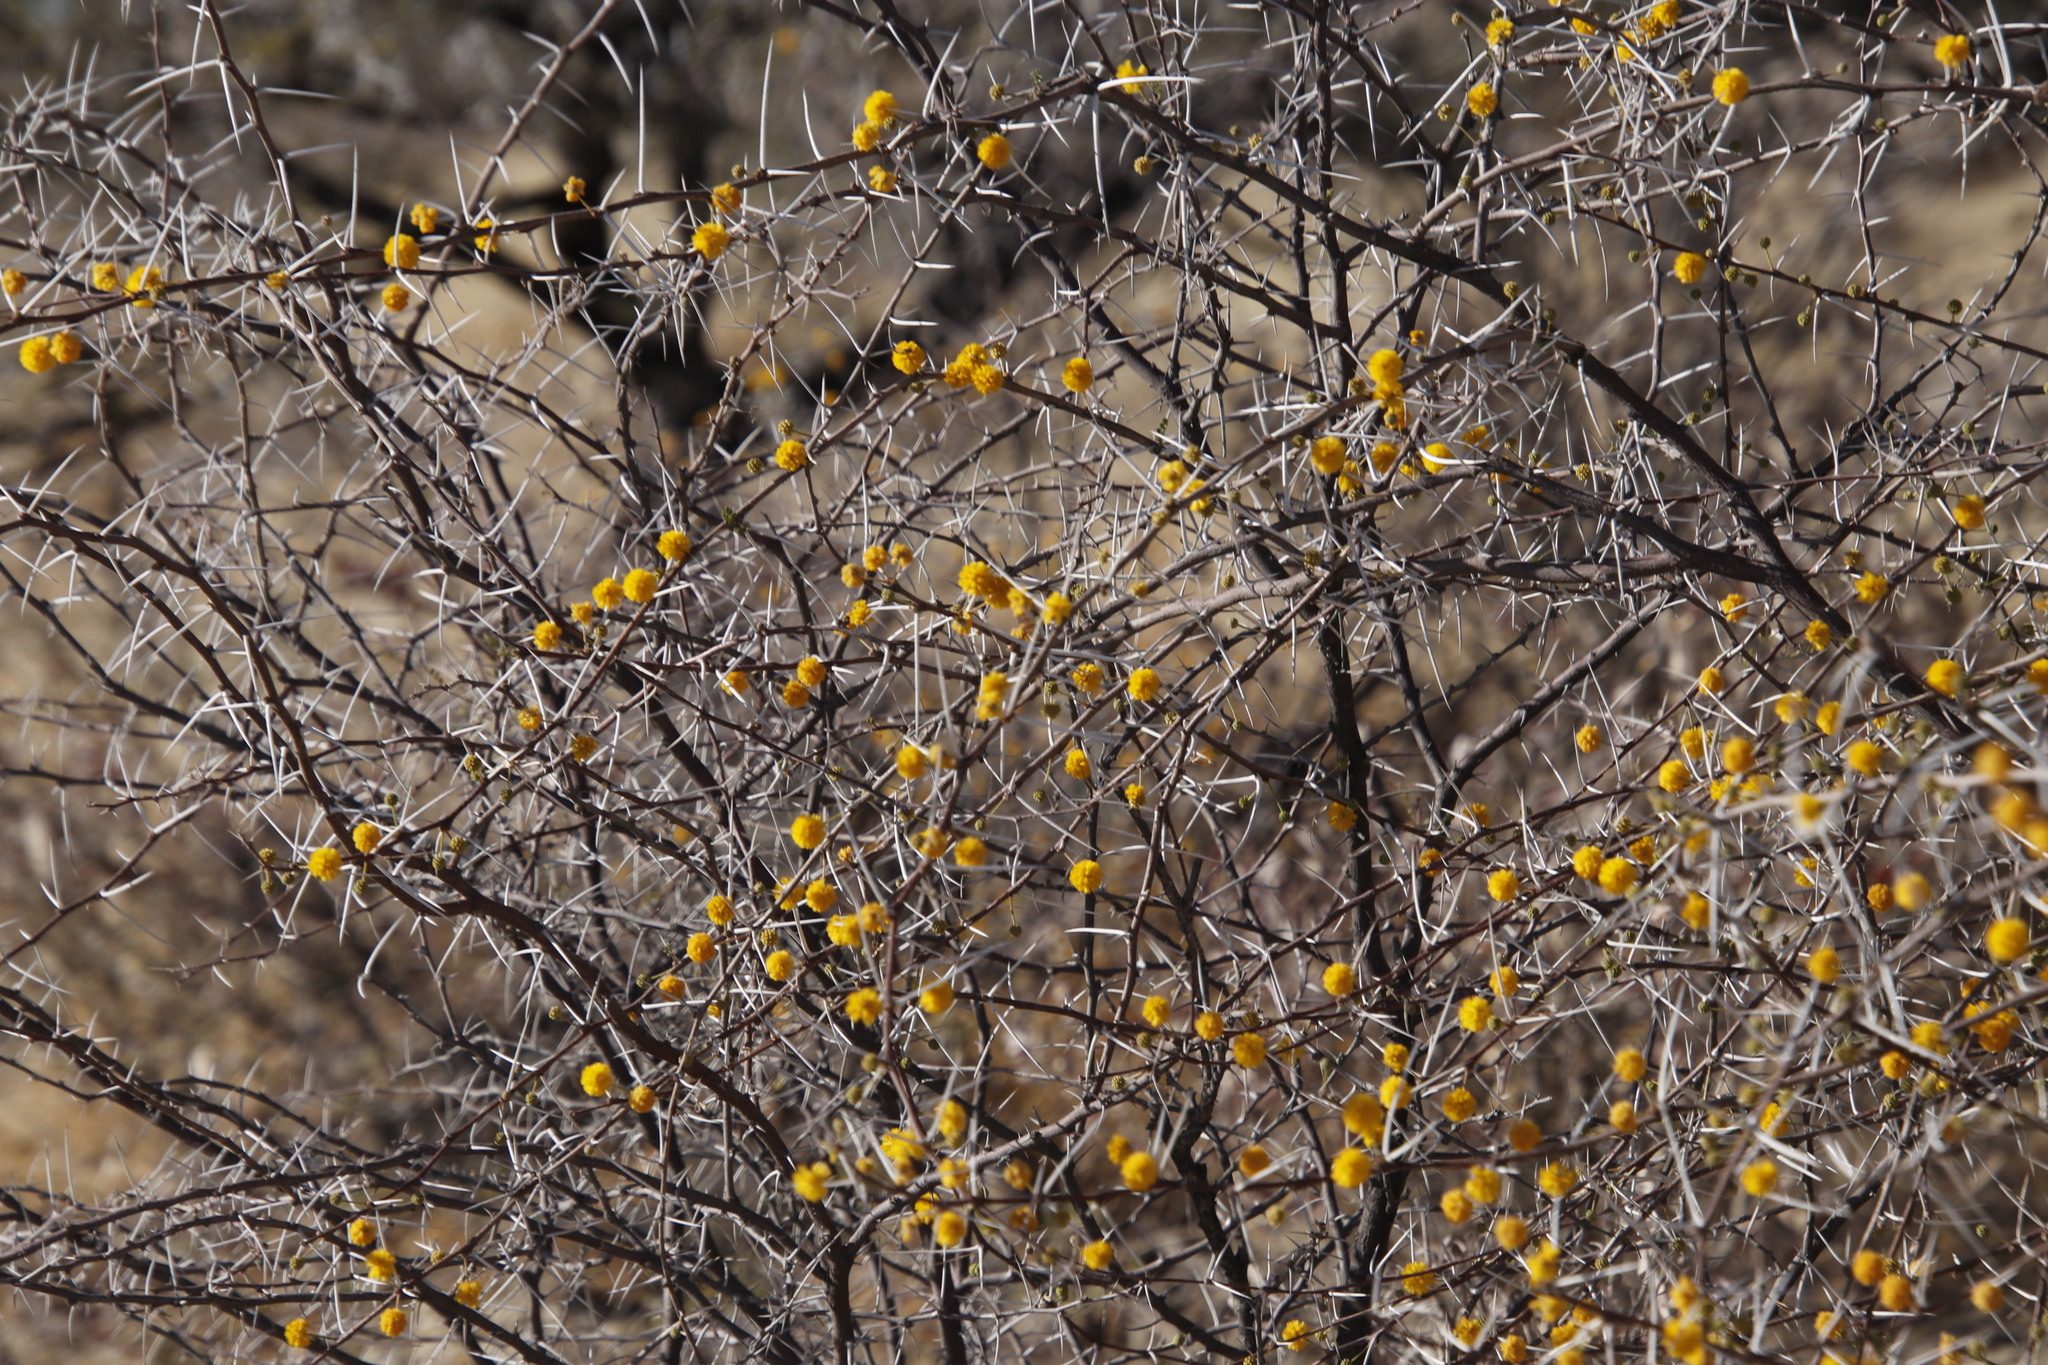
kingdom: Plantae
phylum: Tracheophyta
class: Magnoliopsida
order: Fabales
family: Fabaceae
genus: Vachellia
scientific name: Vachellia nebrownii
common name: Water acacia
